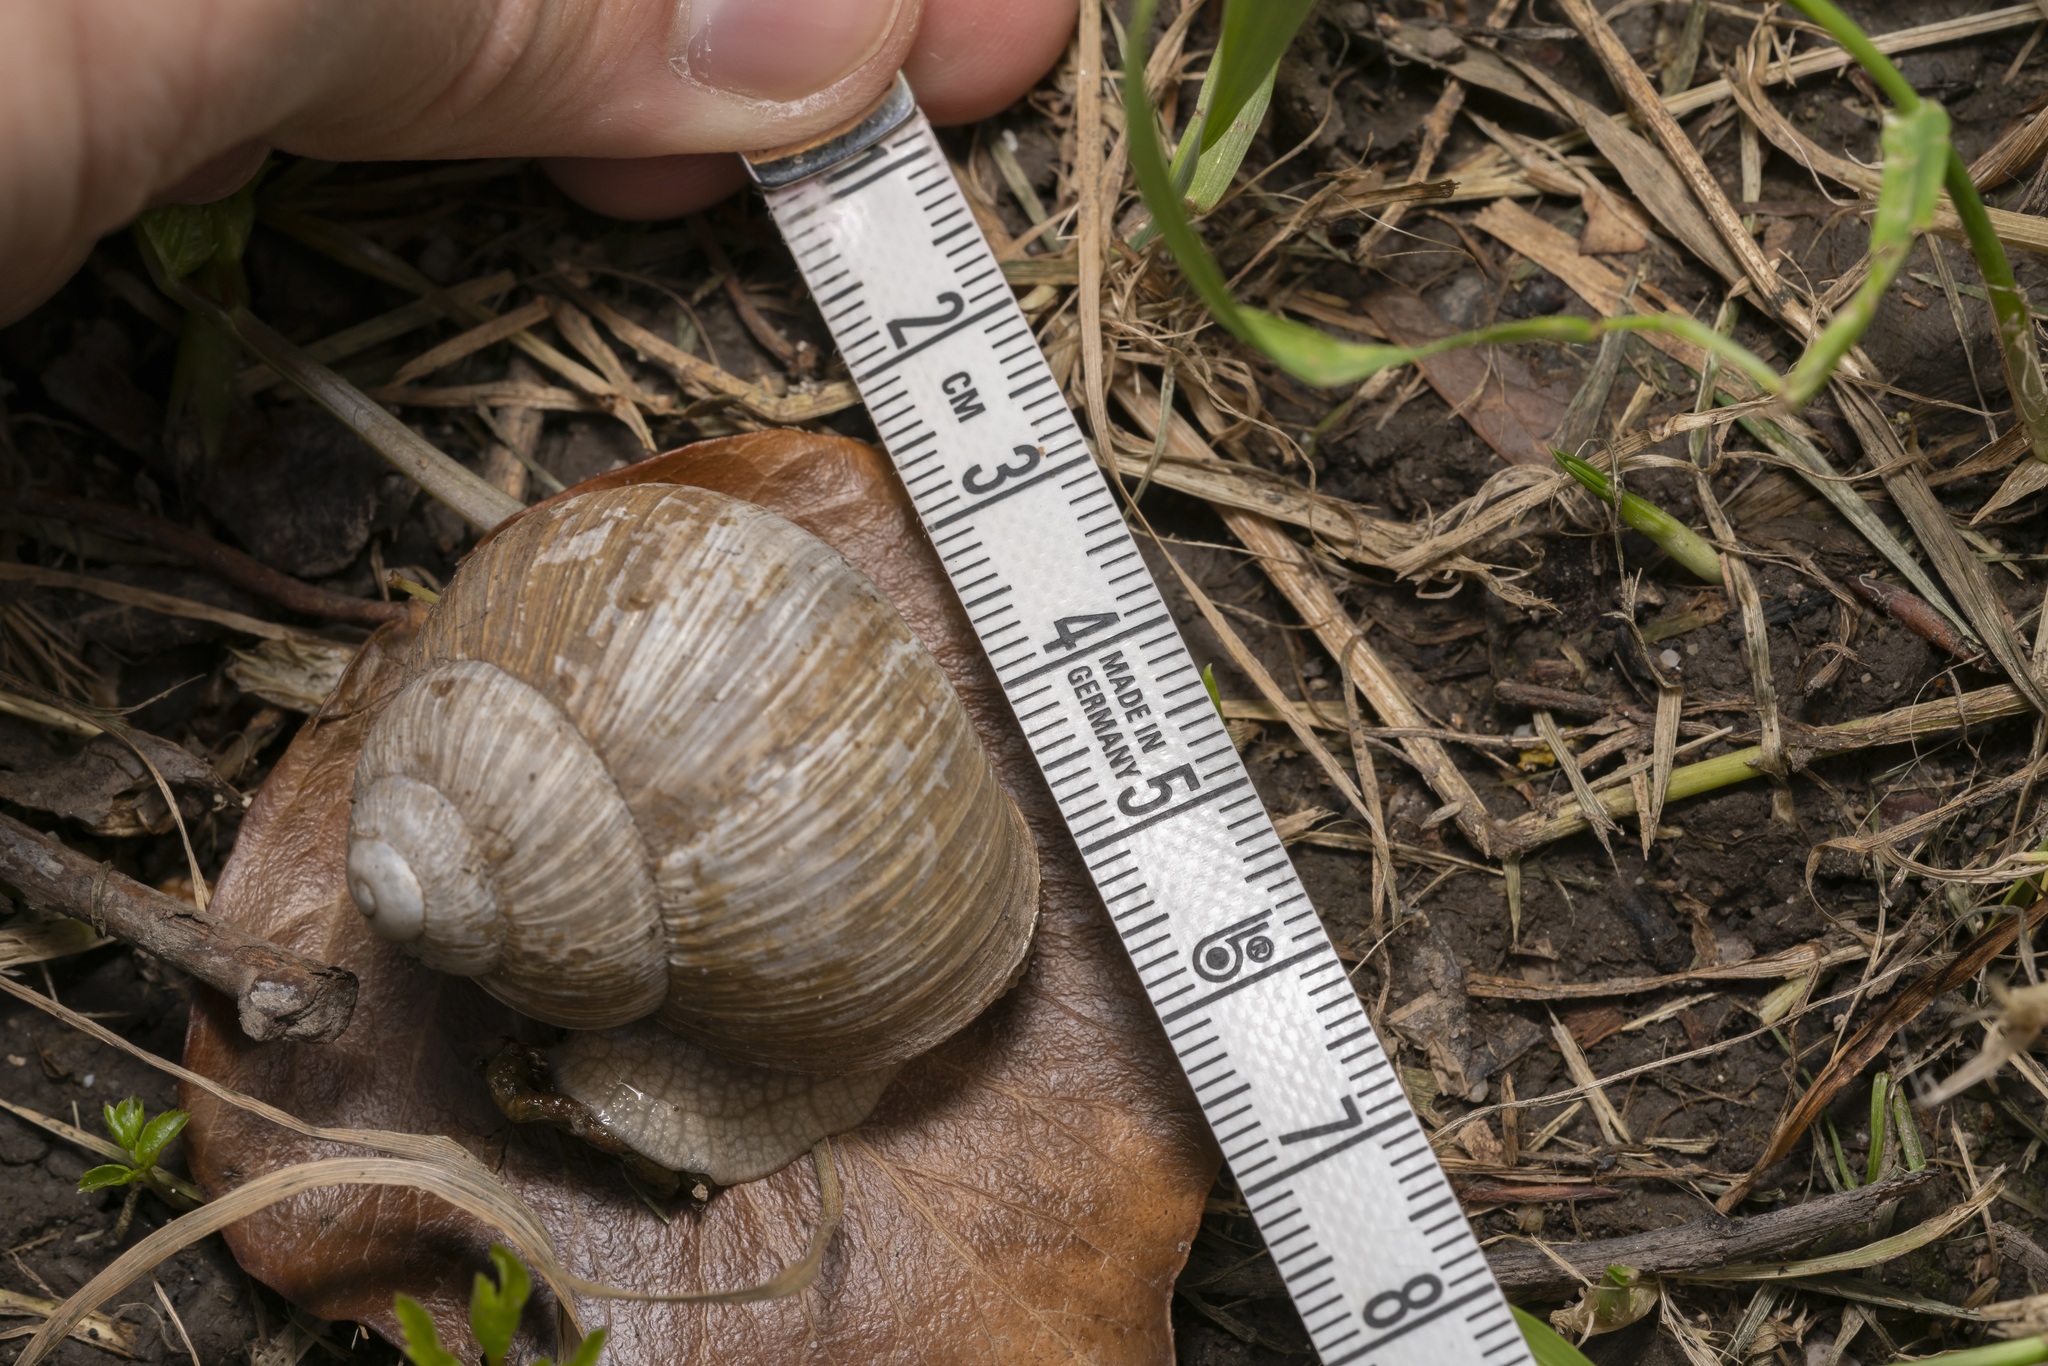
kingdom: Animalia
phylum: Mollusca
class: Gastropoda
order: Stylommatophora
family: Helicidae
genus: Helix
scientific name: Helix pomatia
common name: Roman snail
